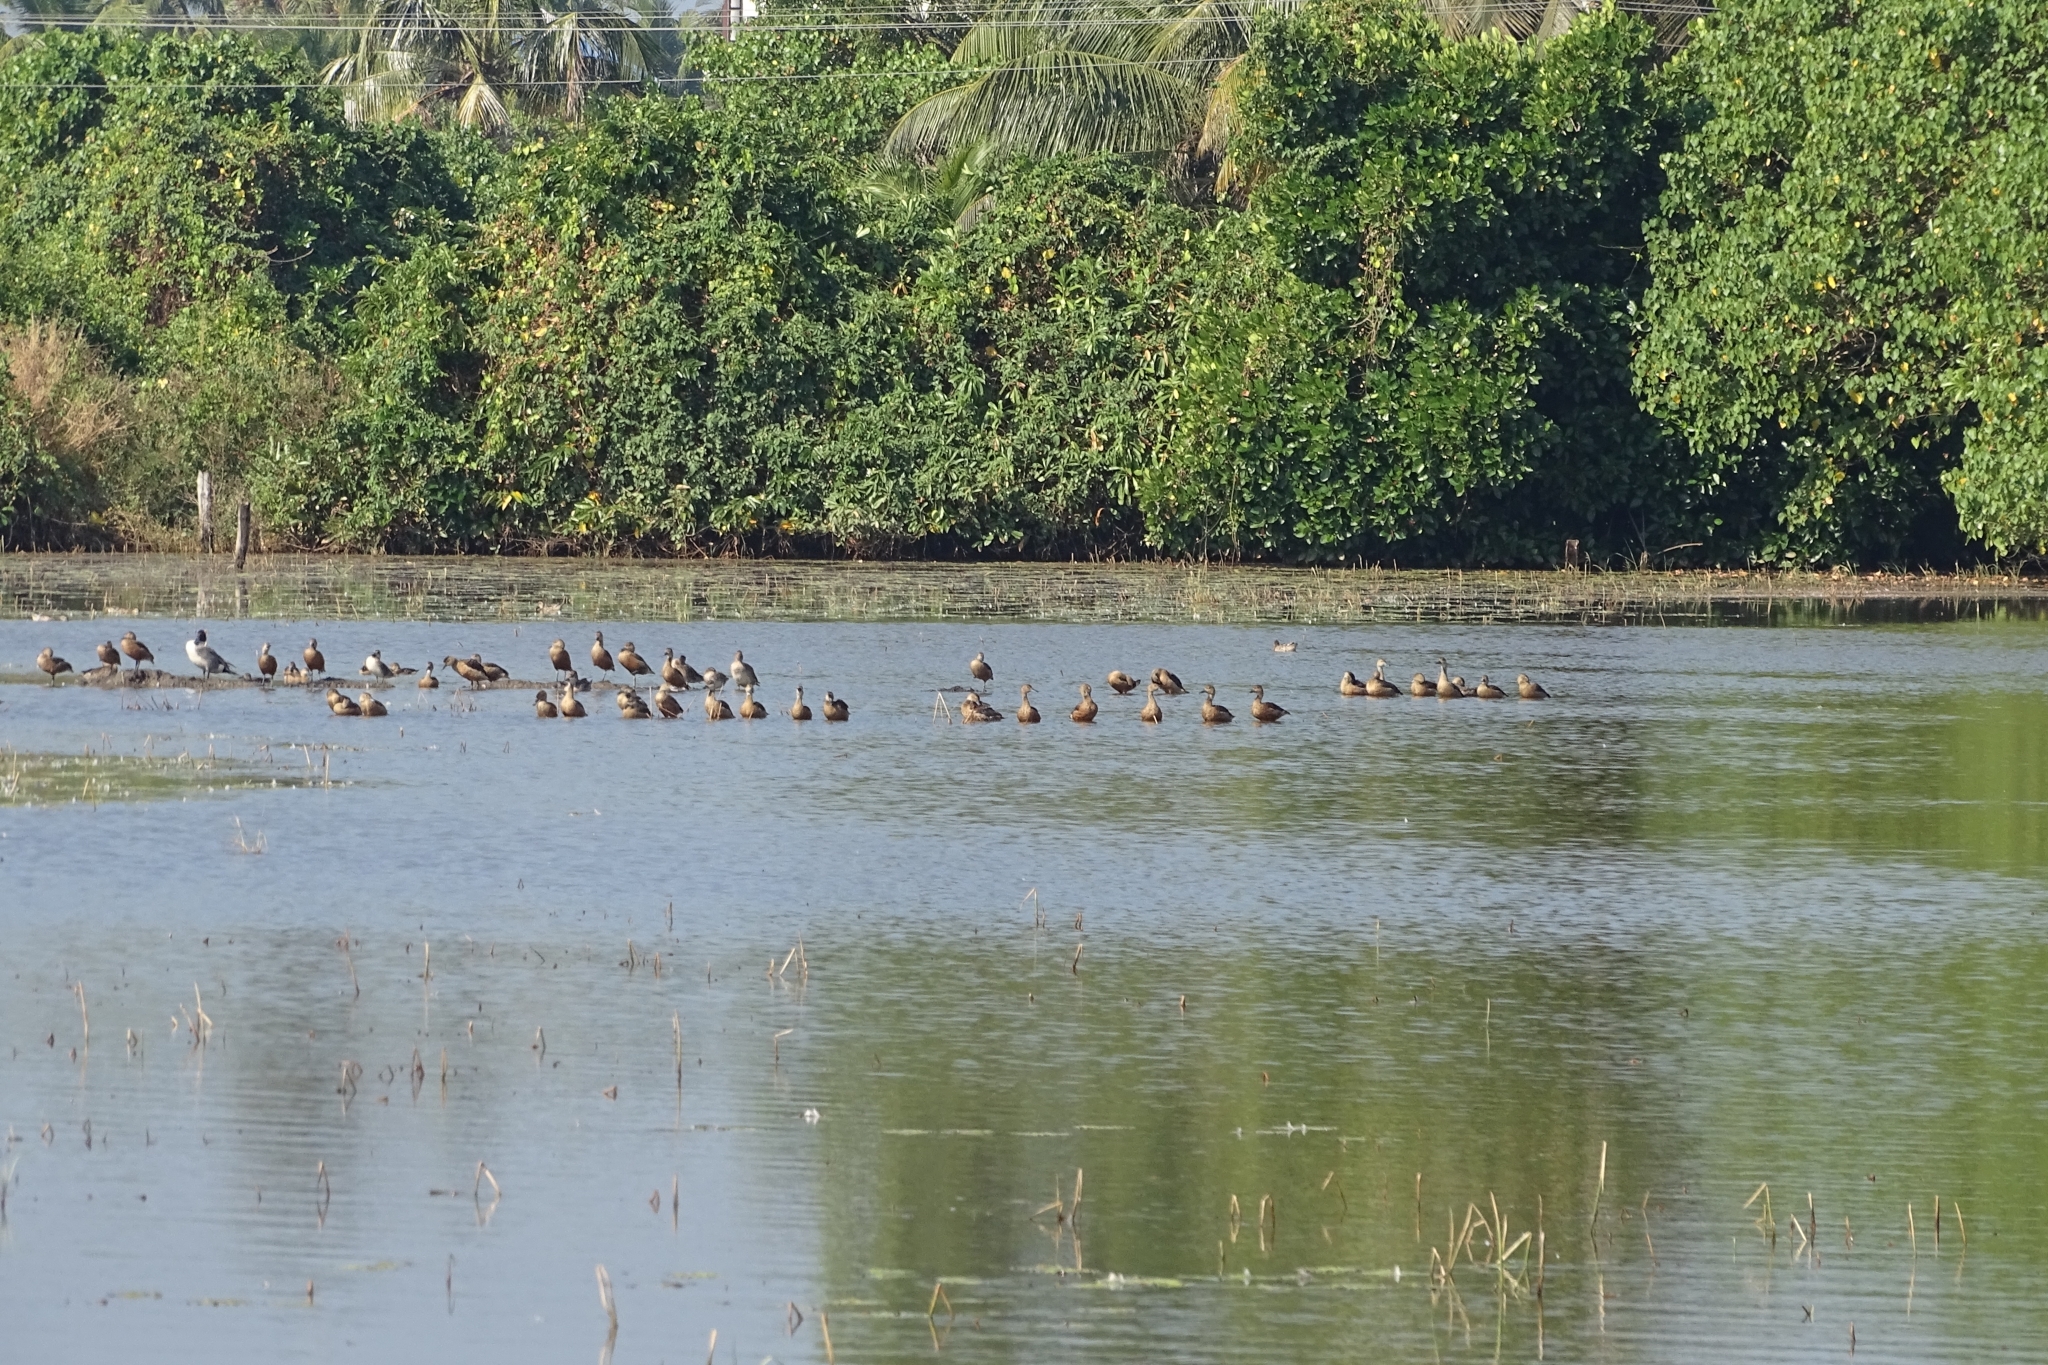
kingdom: Animalia
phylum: Chordata
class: Aves
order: Anseriformes
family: Anatidae
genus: Dendrocygna
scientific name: Dendrocygna javanica
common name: Lesser whistling-duck
